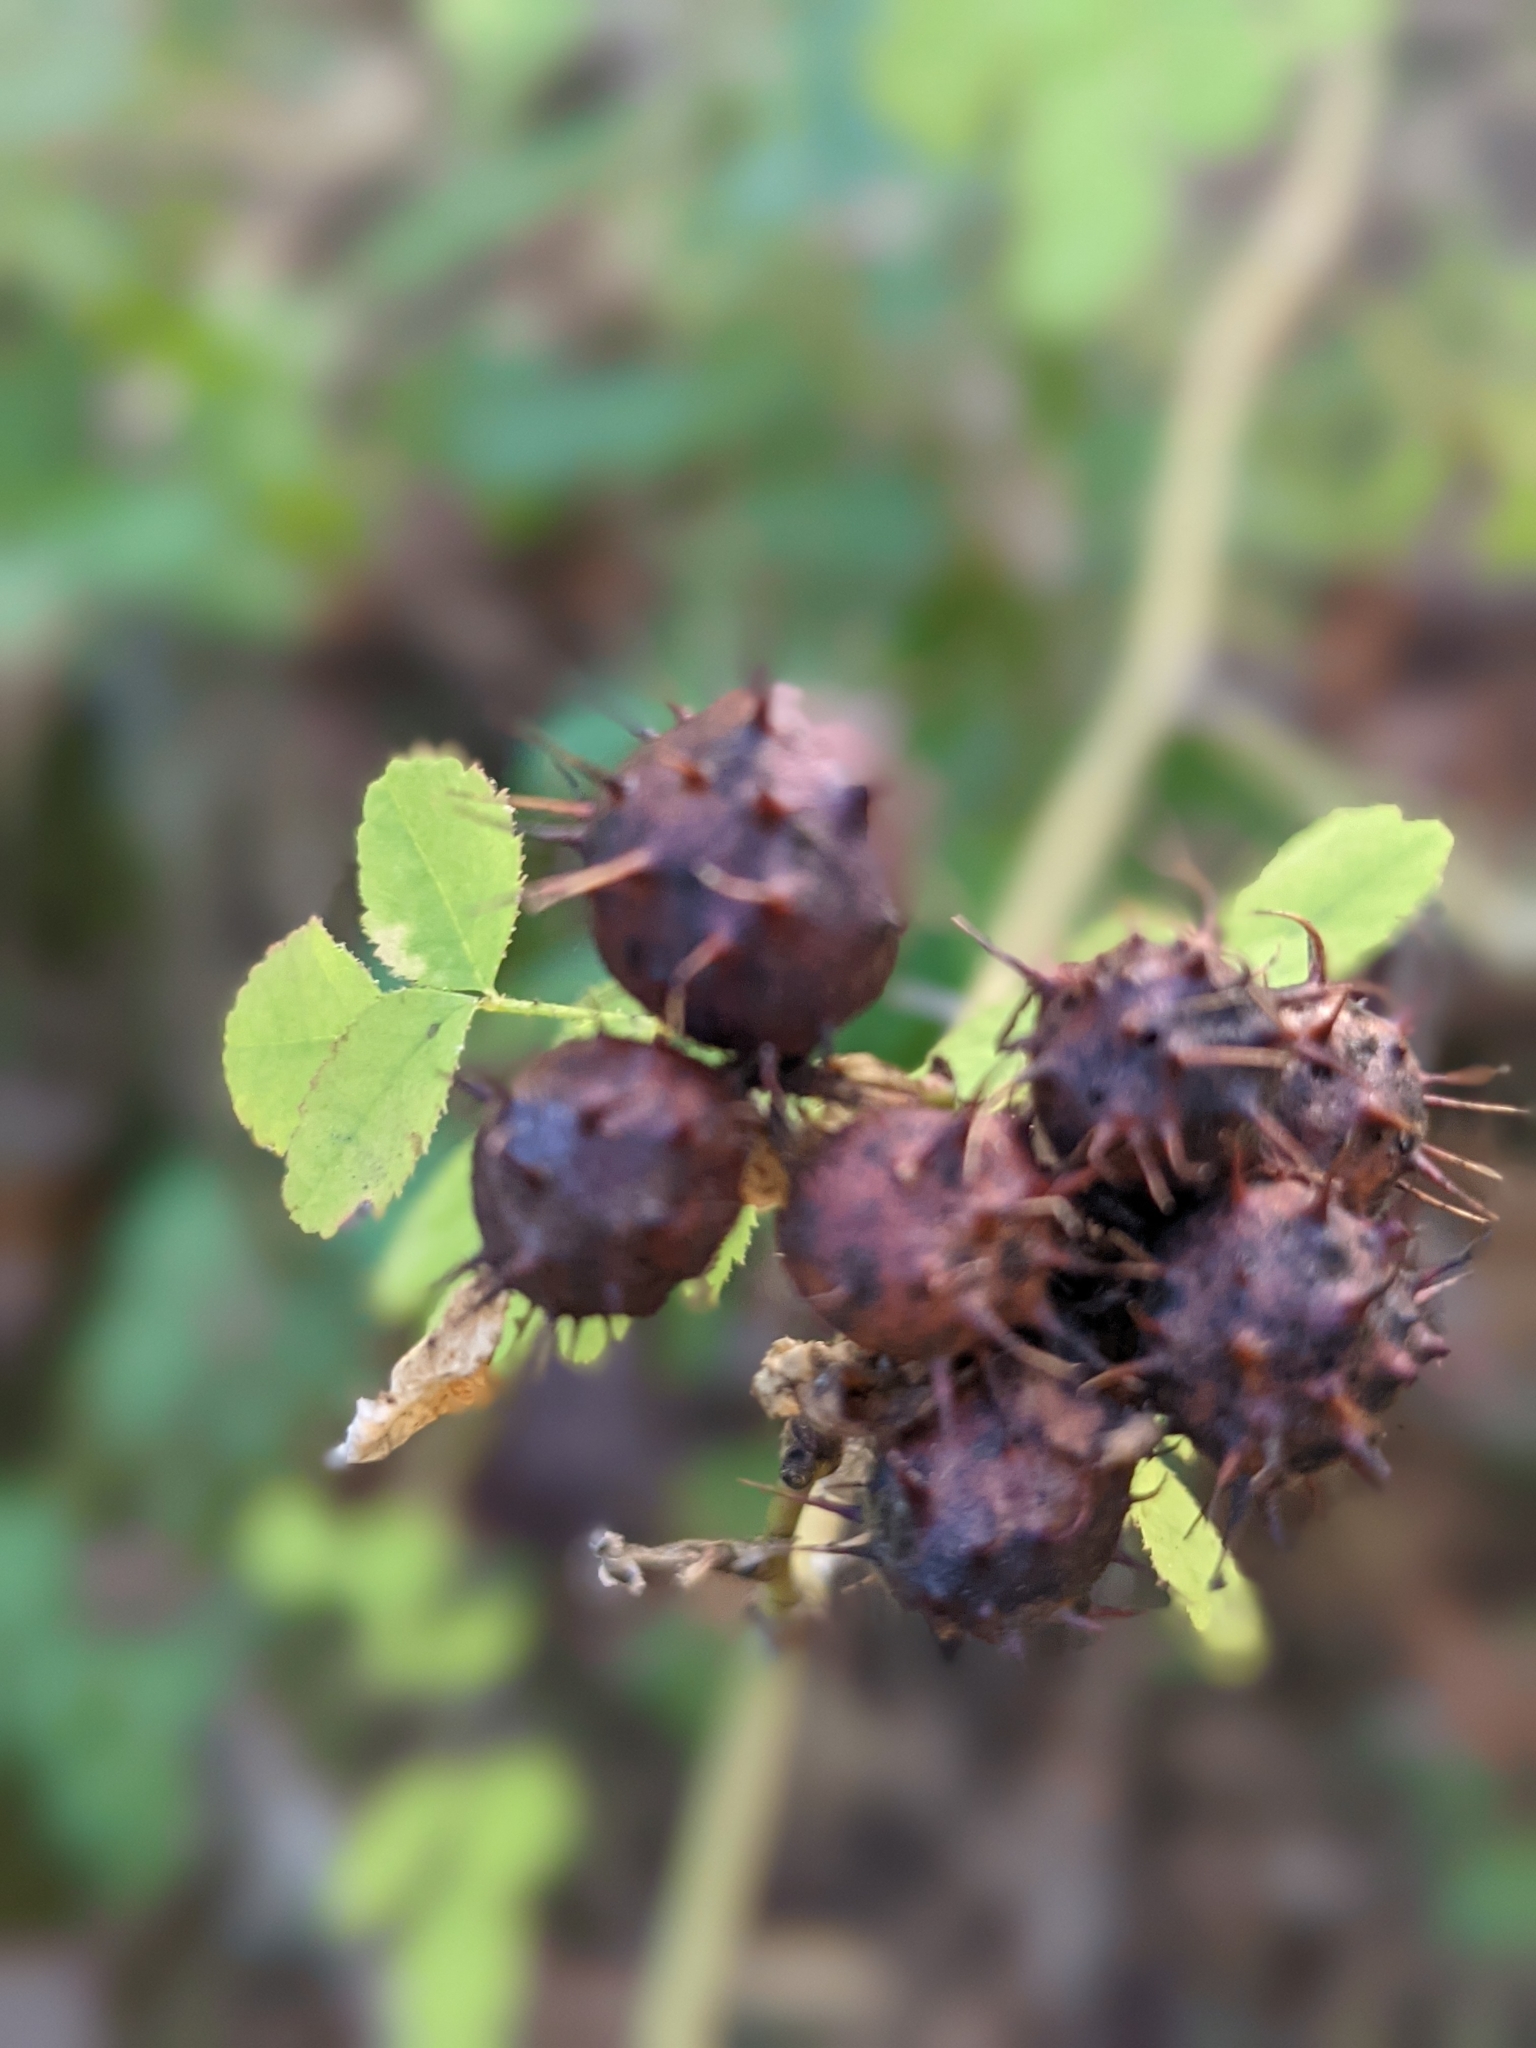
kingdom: Animalia
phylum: Arthropoda
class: Insecta
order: Hymenoptera
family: Cynipidae
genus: Diplolepis
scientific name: Diplolepis polita
